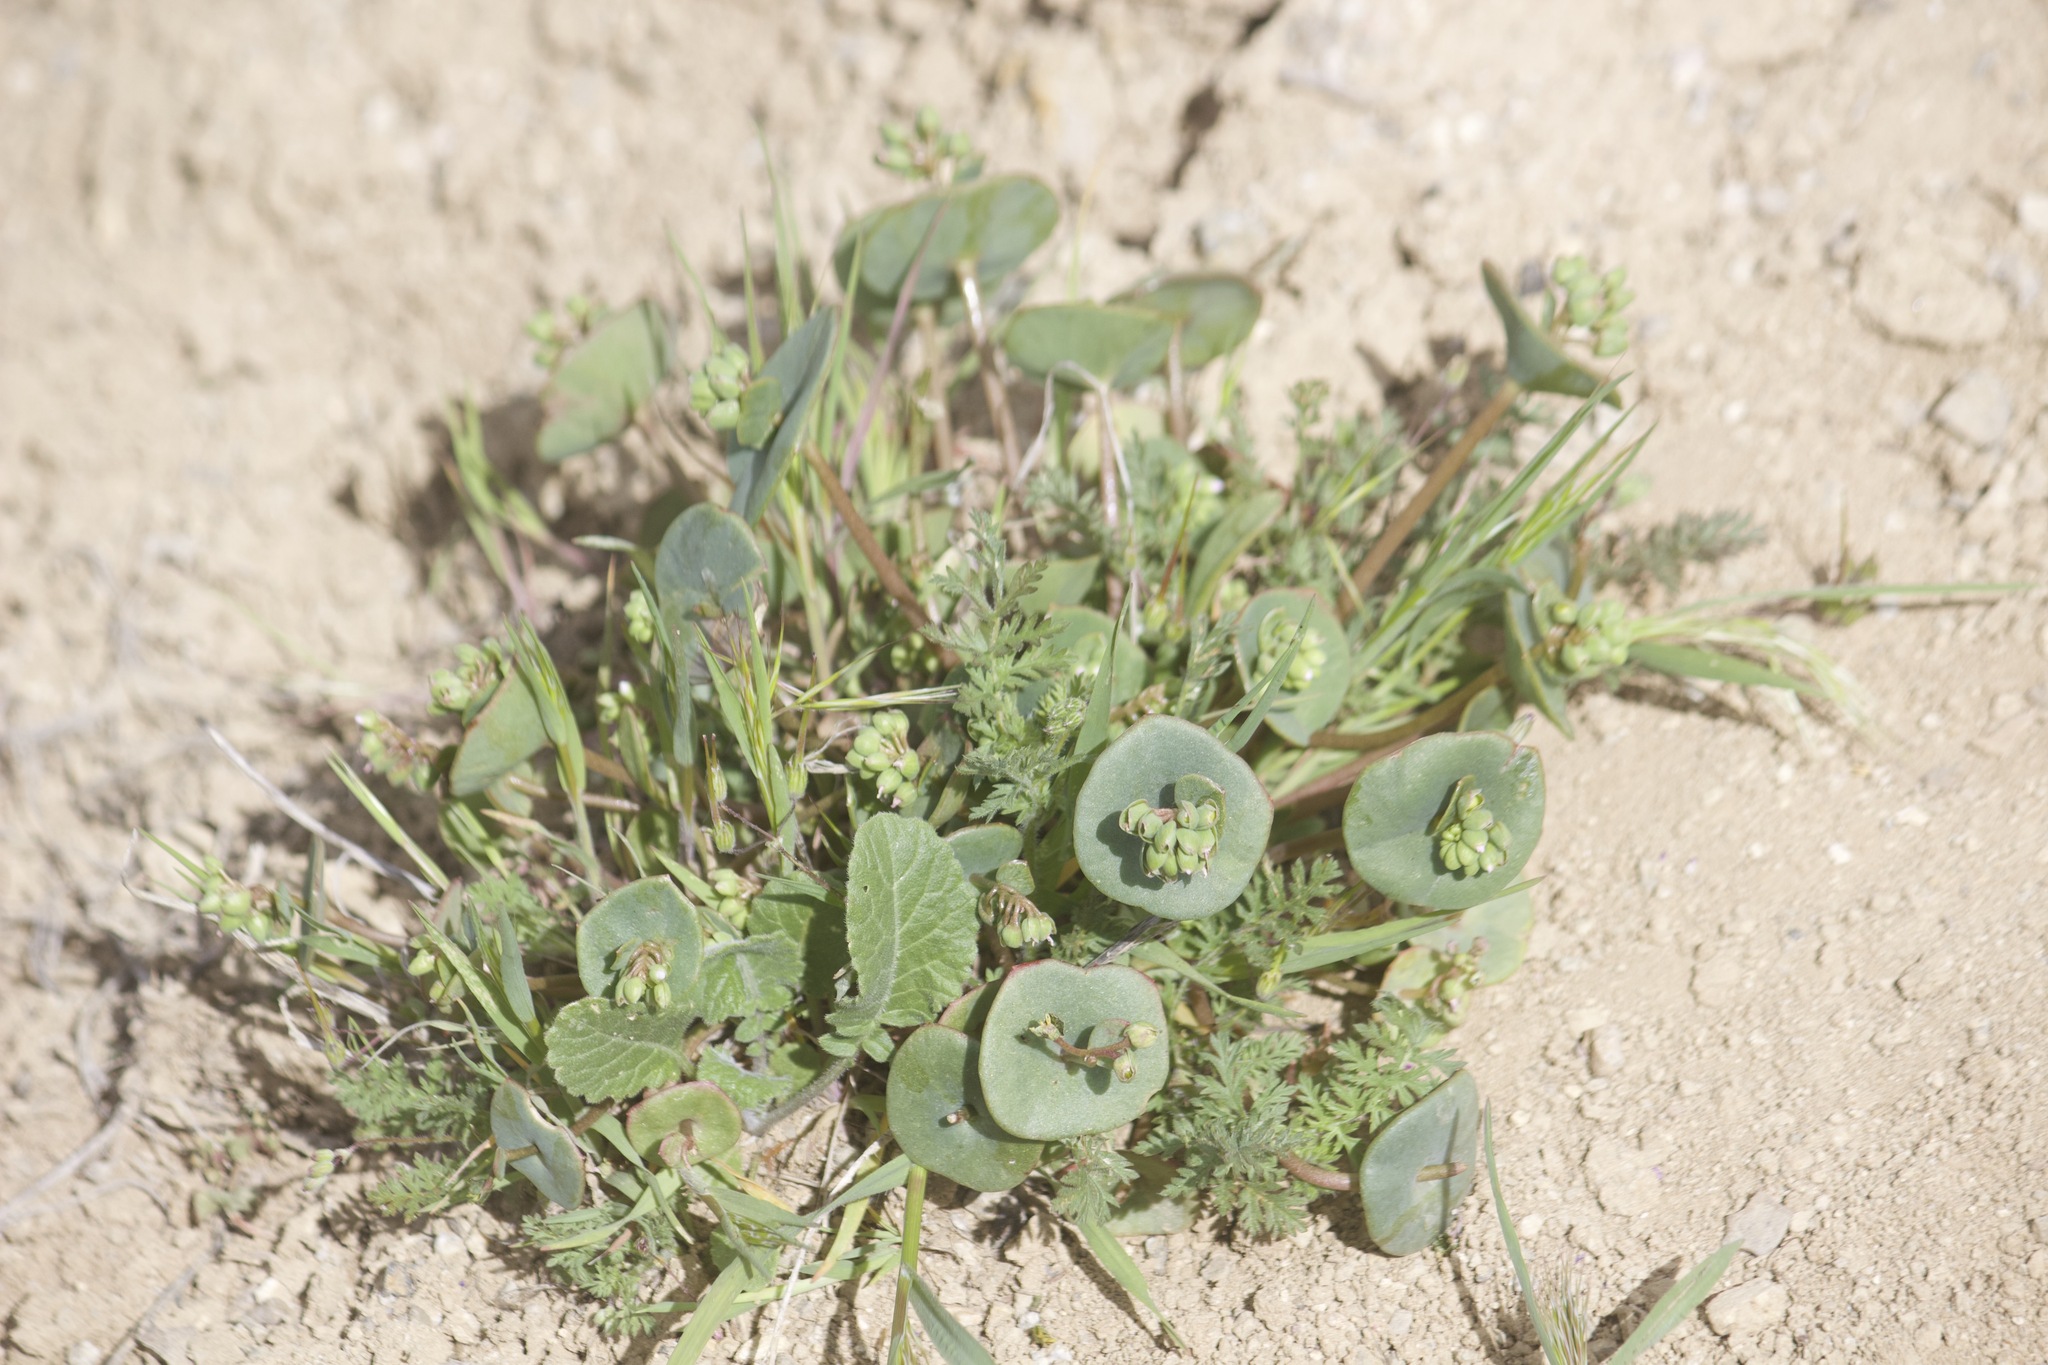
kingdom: Plantae
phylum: Tracheophyta
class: Magnoliopsida
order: Caryophyllales
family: Montiaceae
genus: Claytonia
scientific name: Claytonia perfoliata
